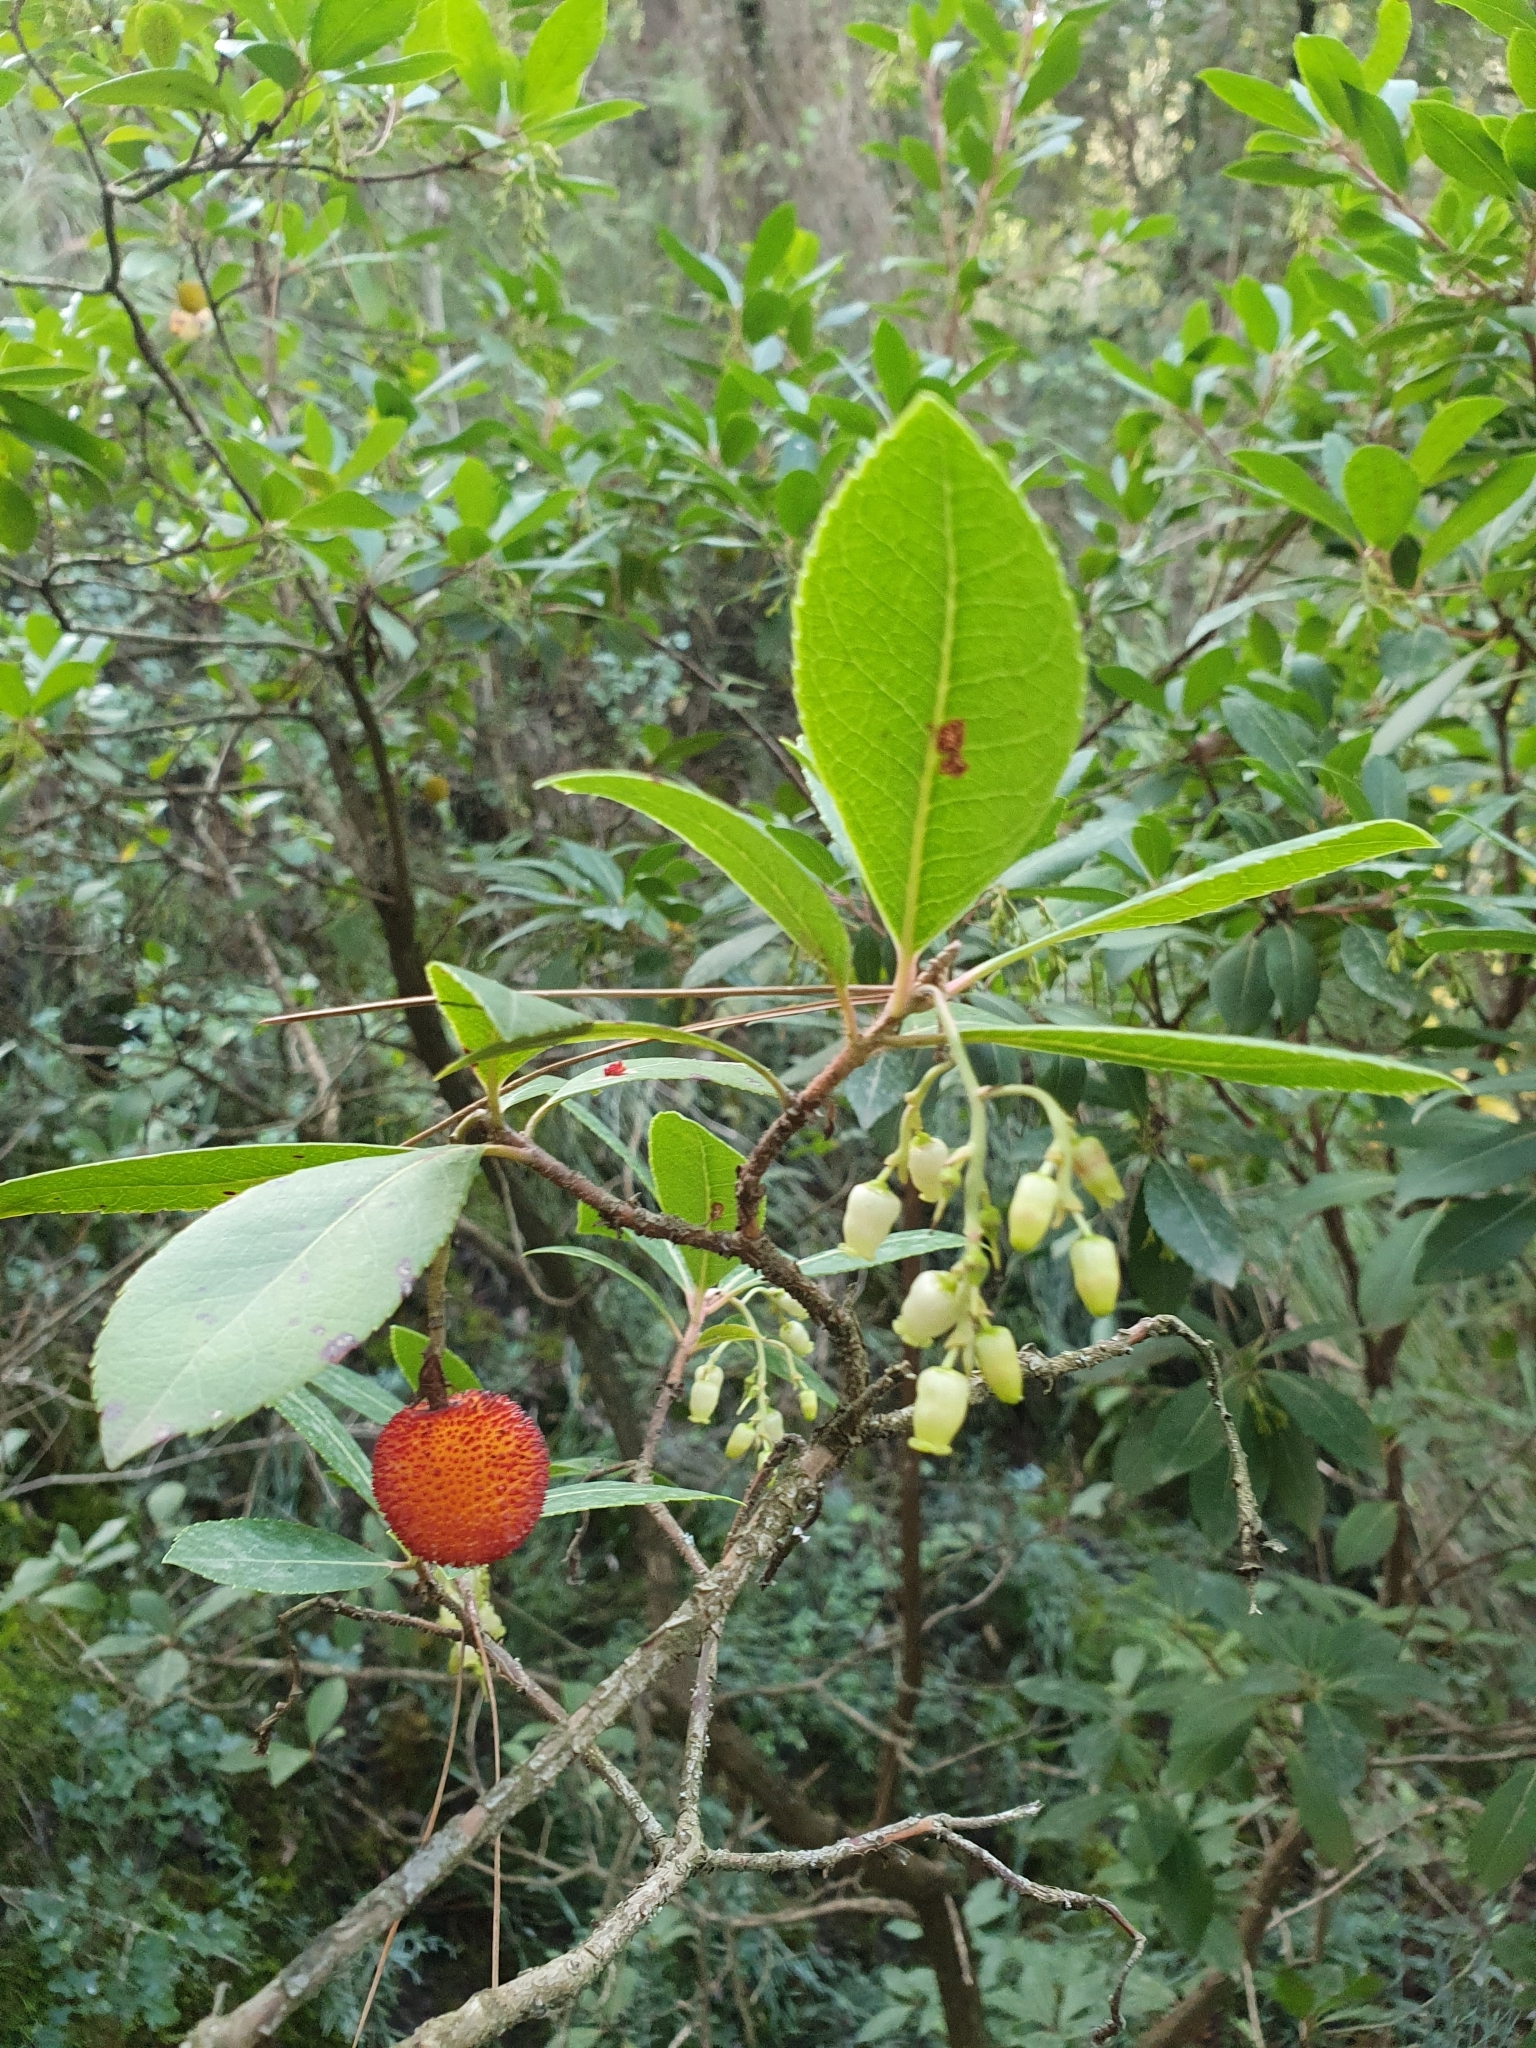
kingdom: Plantae
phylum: Tracheophyta
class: Magnoliopsida
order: Ericales
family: Ericaceae
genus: Arbutus
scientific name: Arbutus unedo
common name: Strawberry-tree
